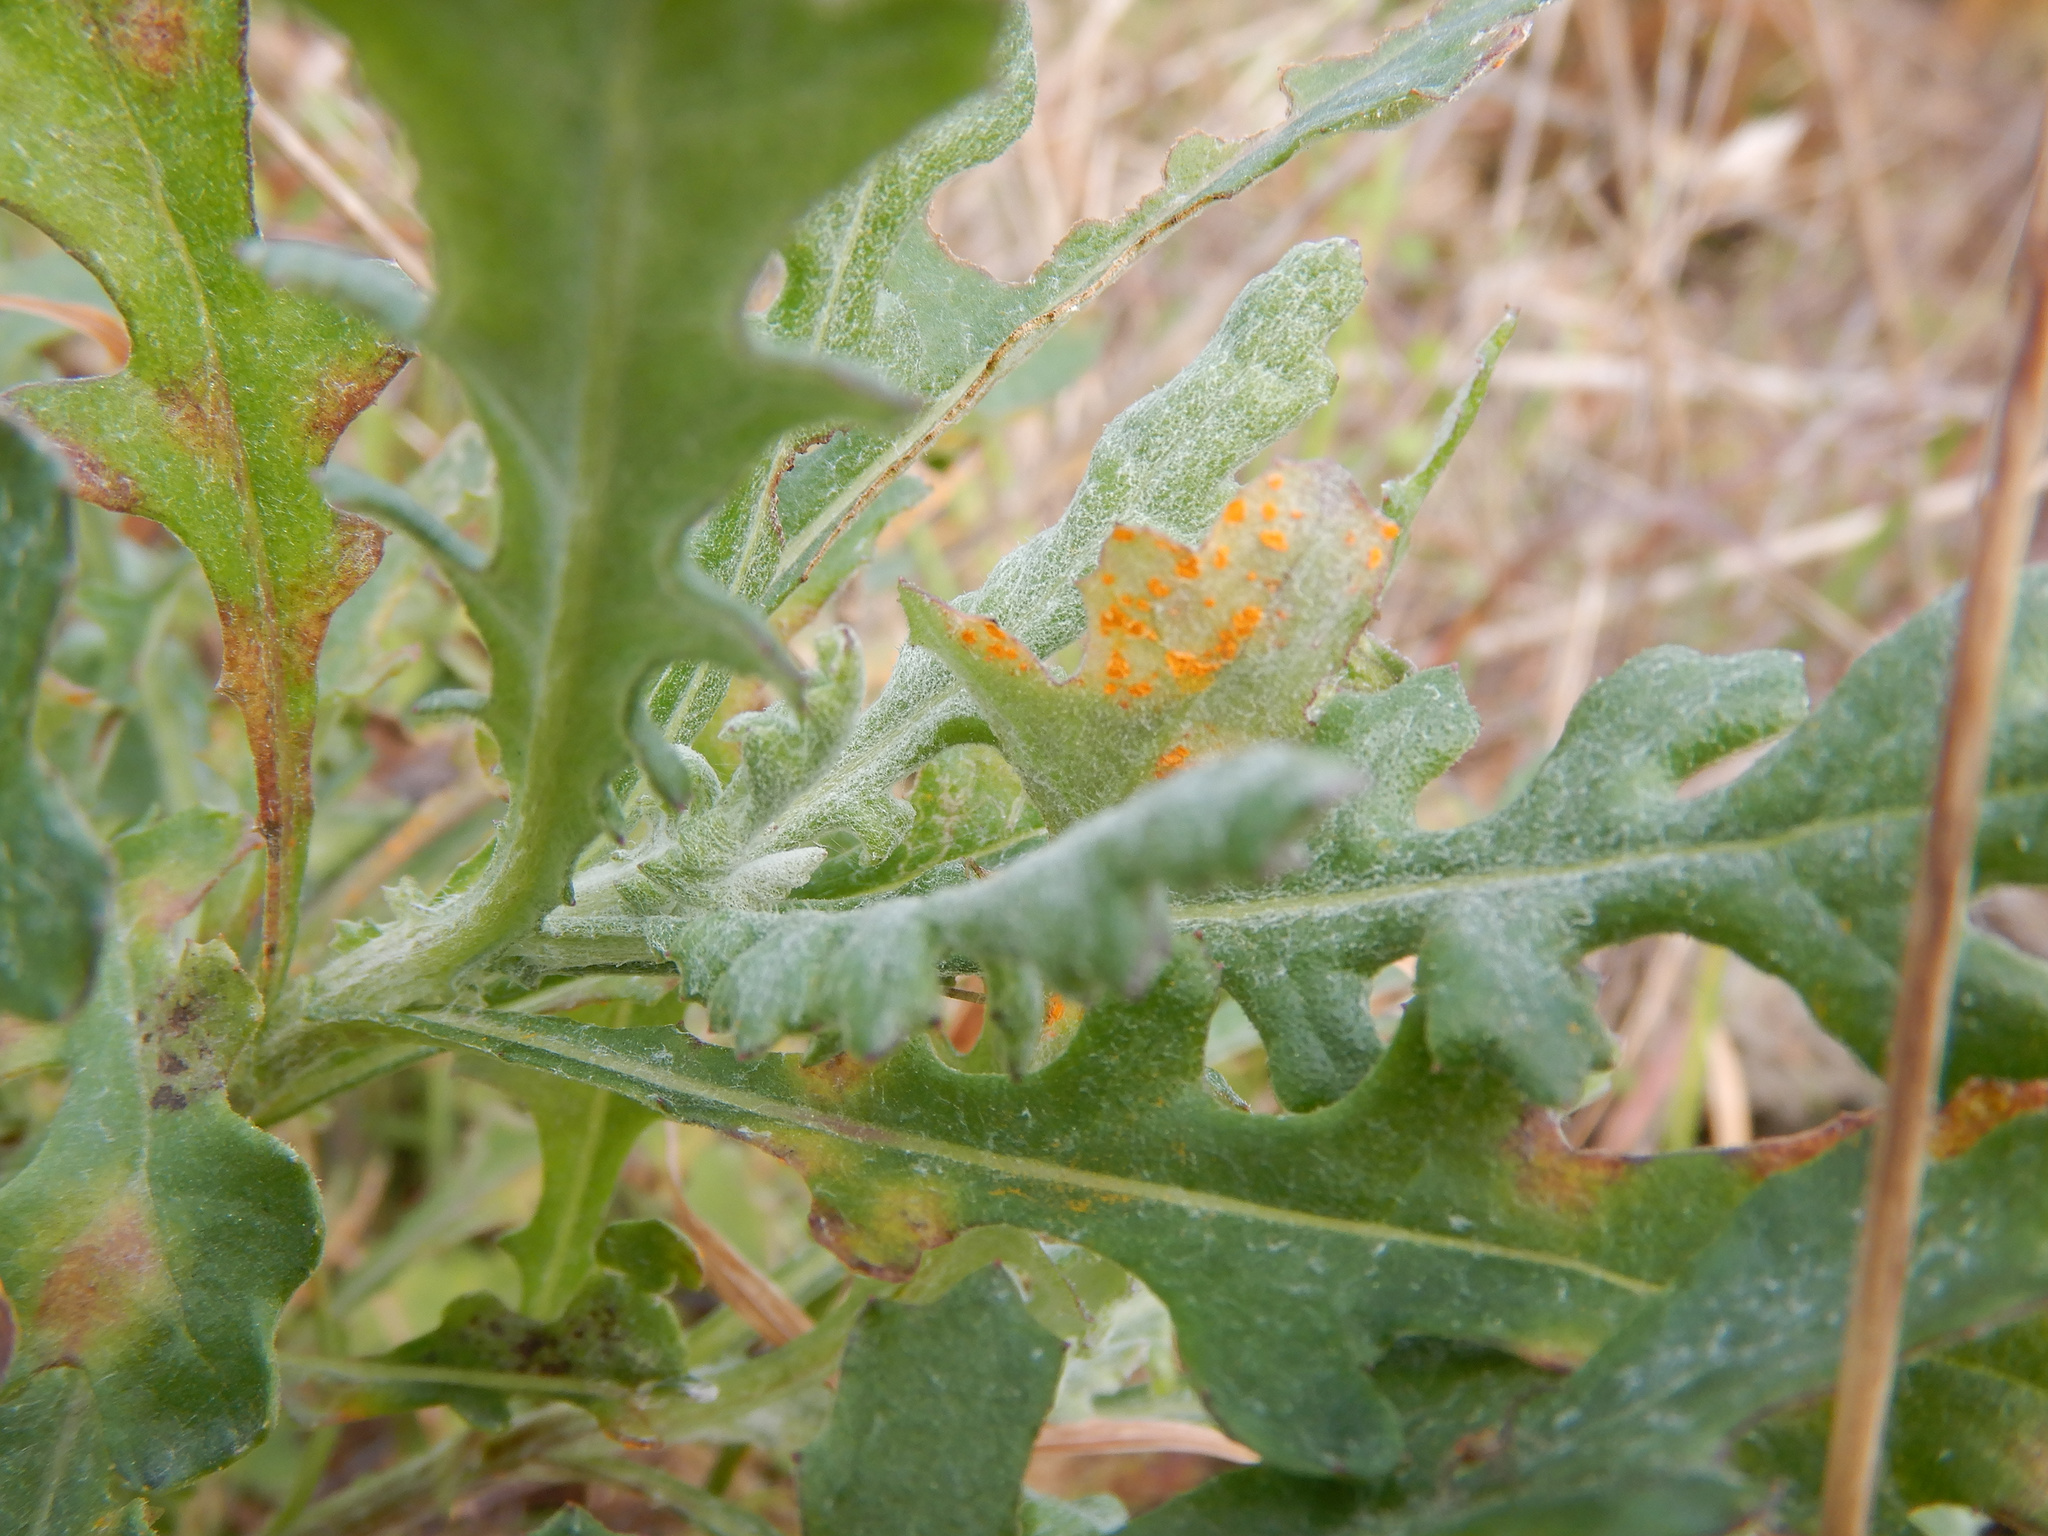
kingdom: Fungi
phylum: Basidiomycota
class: Pucciniomycetes
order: Pucciniales
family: Coleosporiaceae
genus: Coleosporium
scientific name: Coleosporium tussilaginis
